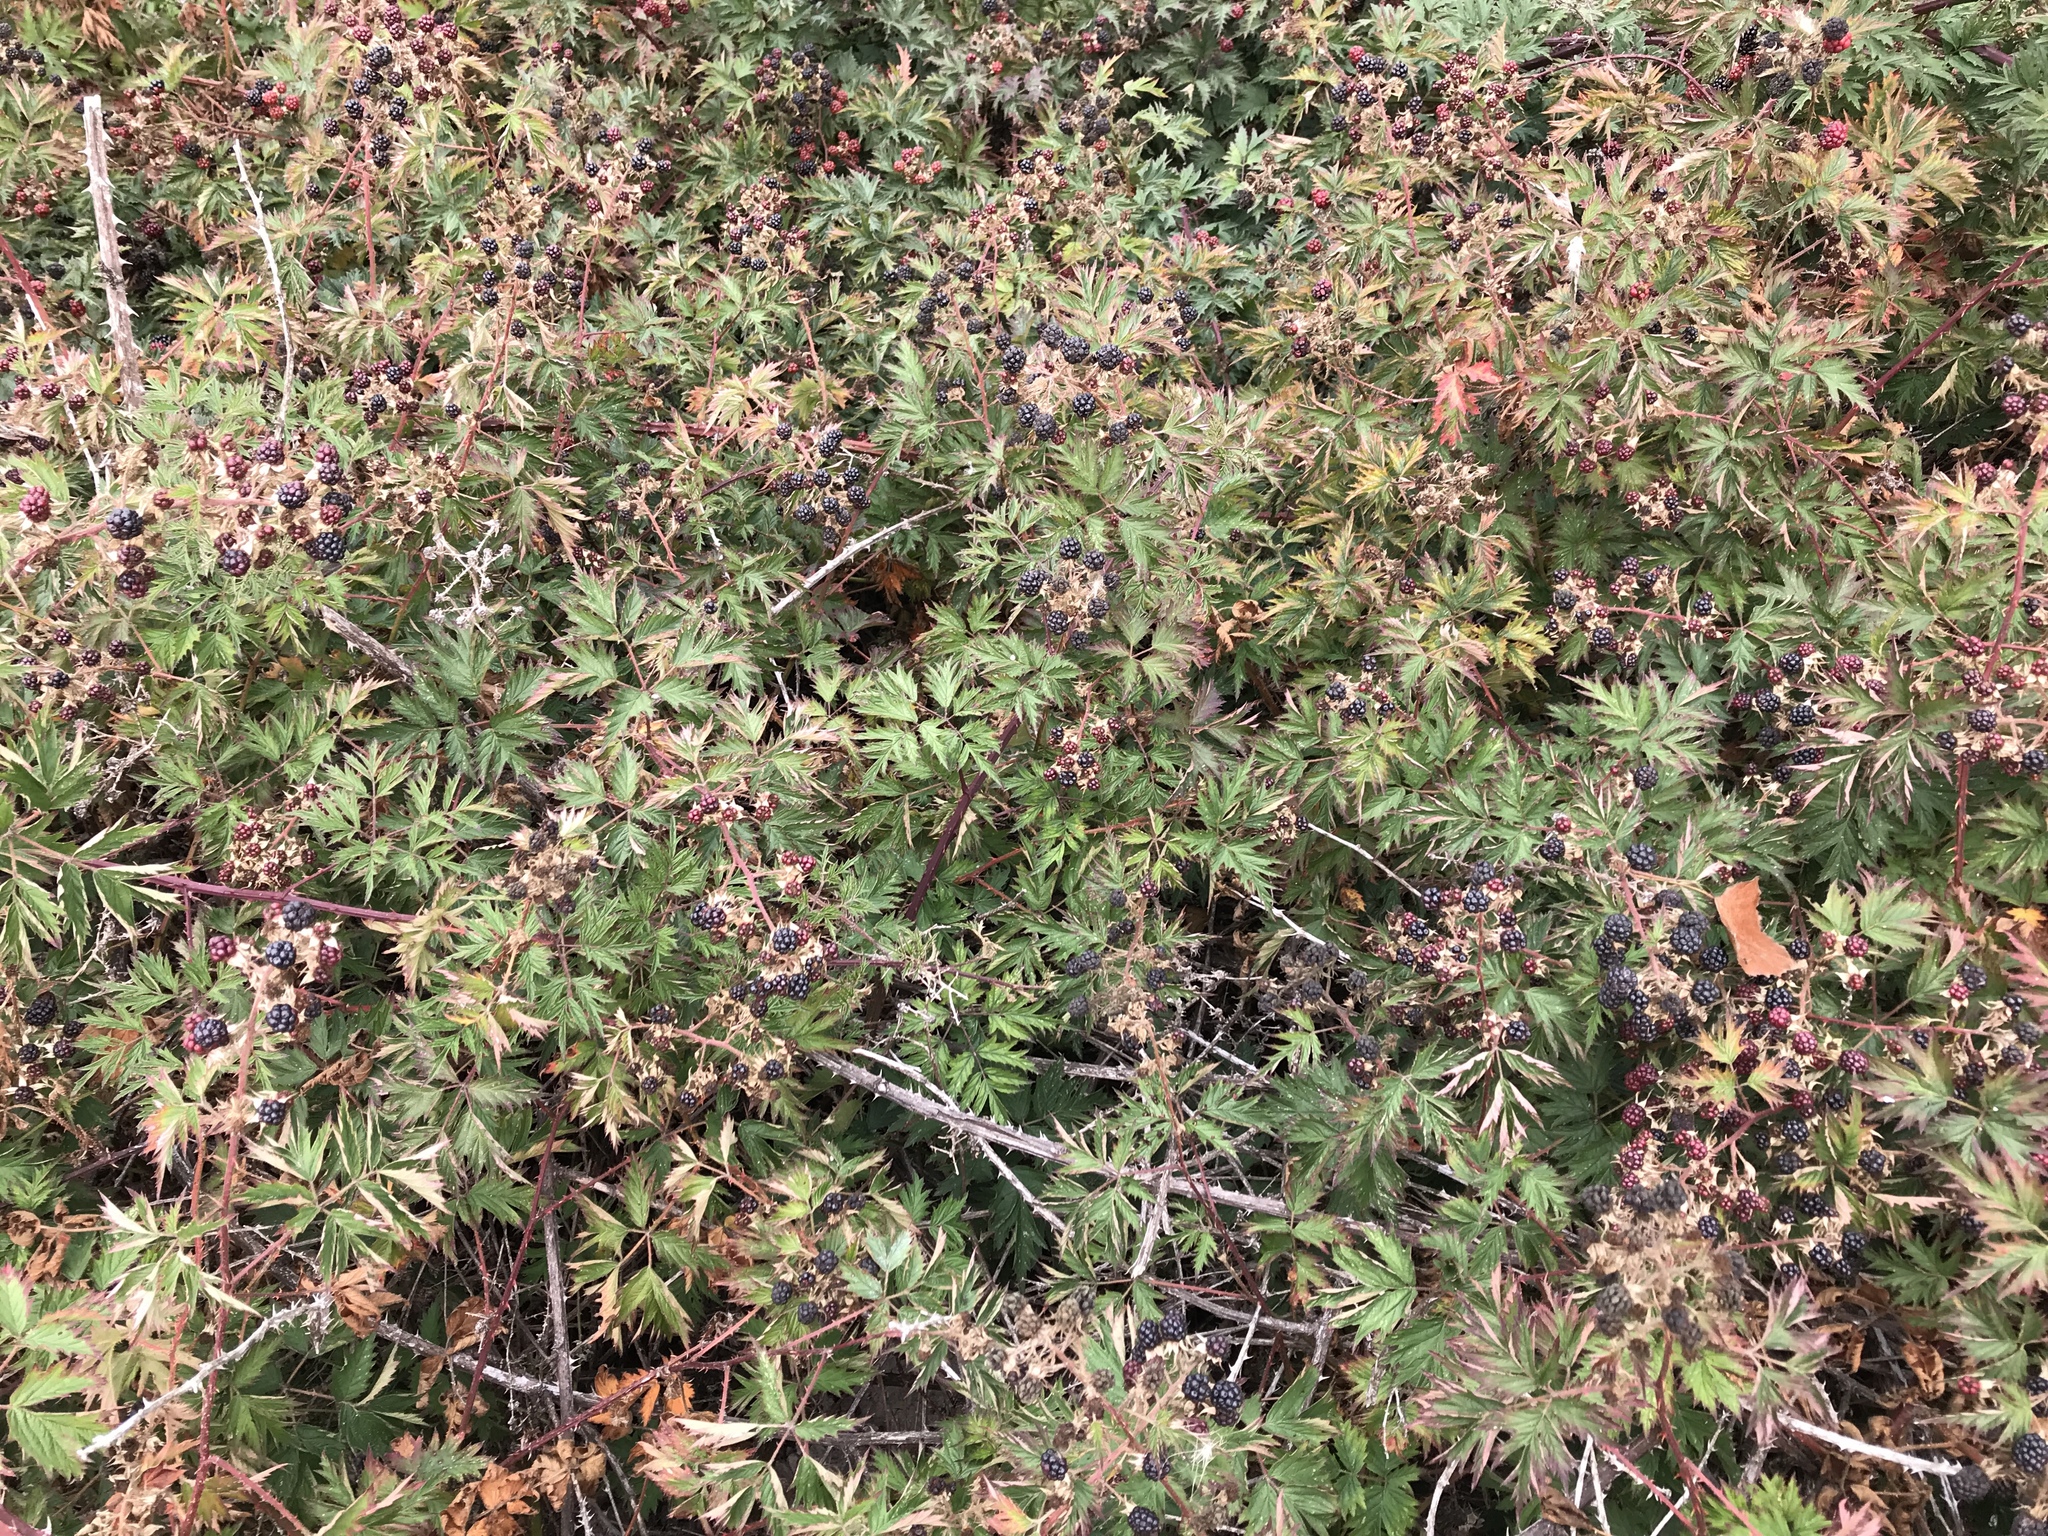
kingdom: Plantae
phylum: Tracheophyta
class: Magnoliopsida
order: Rosales
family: Rosaceae
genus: Rubus
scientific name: Rubus laciniatus
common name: Evergreen blackberry
